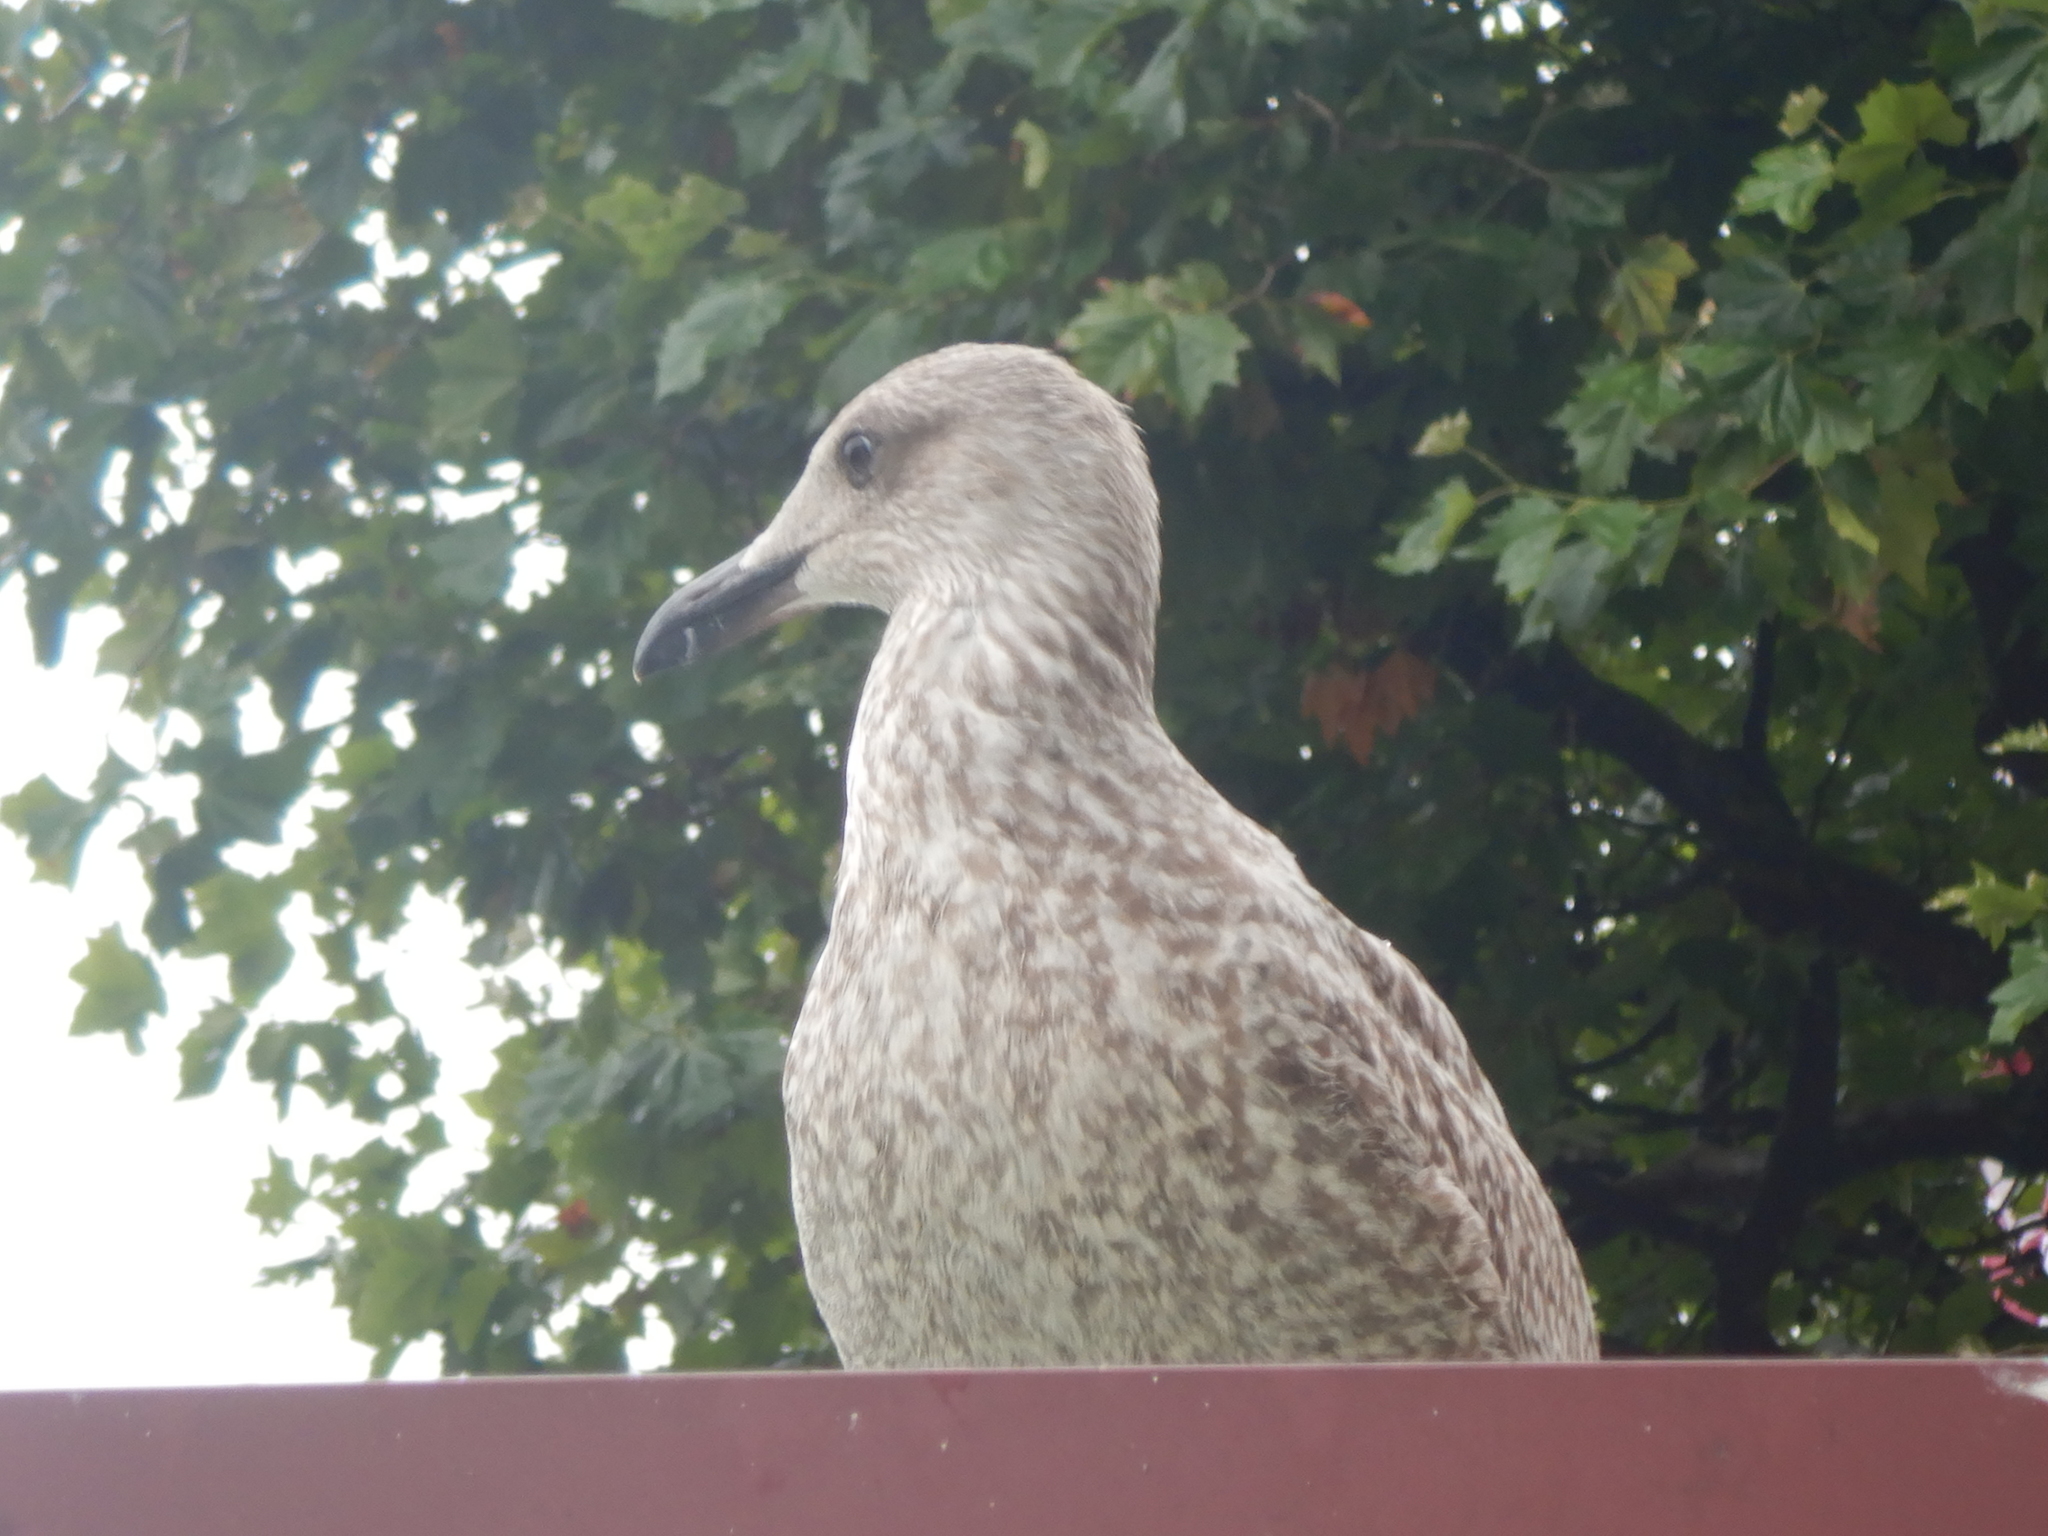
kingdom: Animalia
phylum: Chordata
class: Aves
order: Charadriiformes
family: Laridae
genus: Larus
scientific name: Larus argentatus
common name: Herring gull
